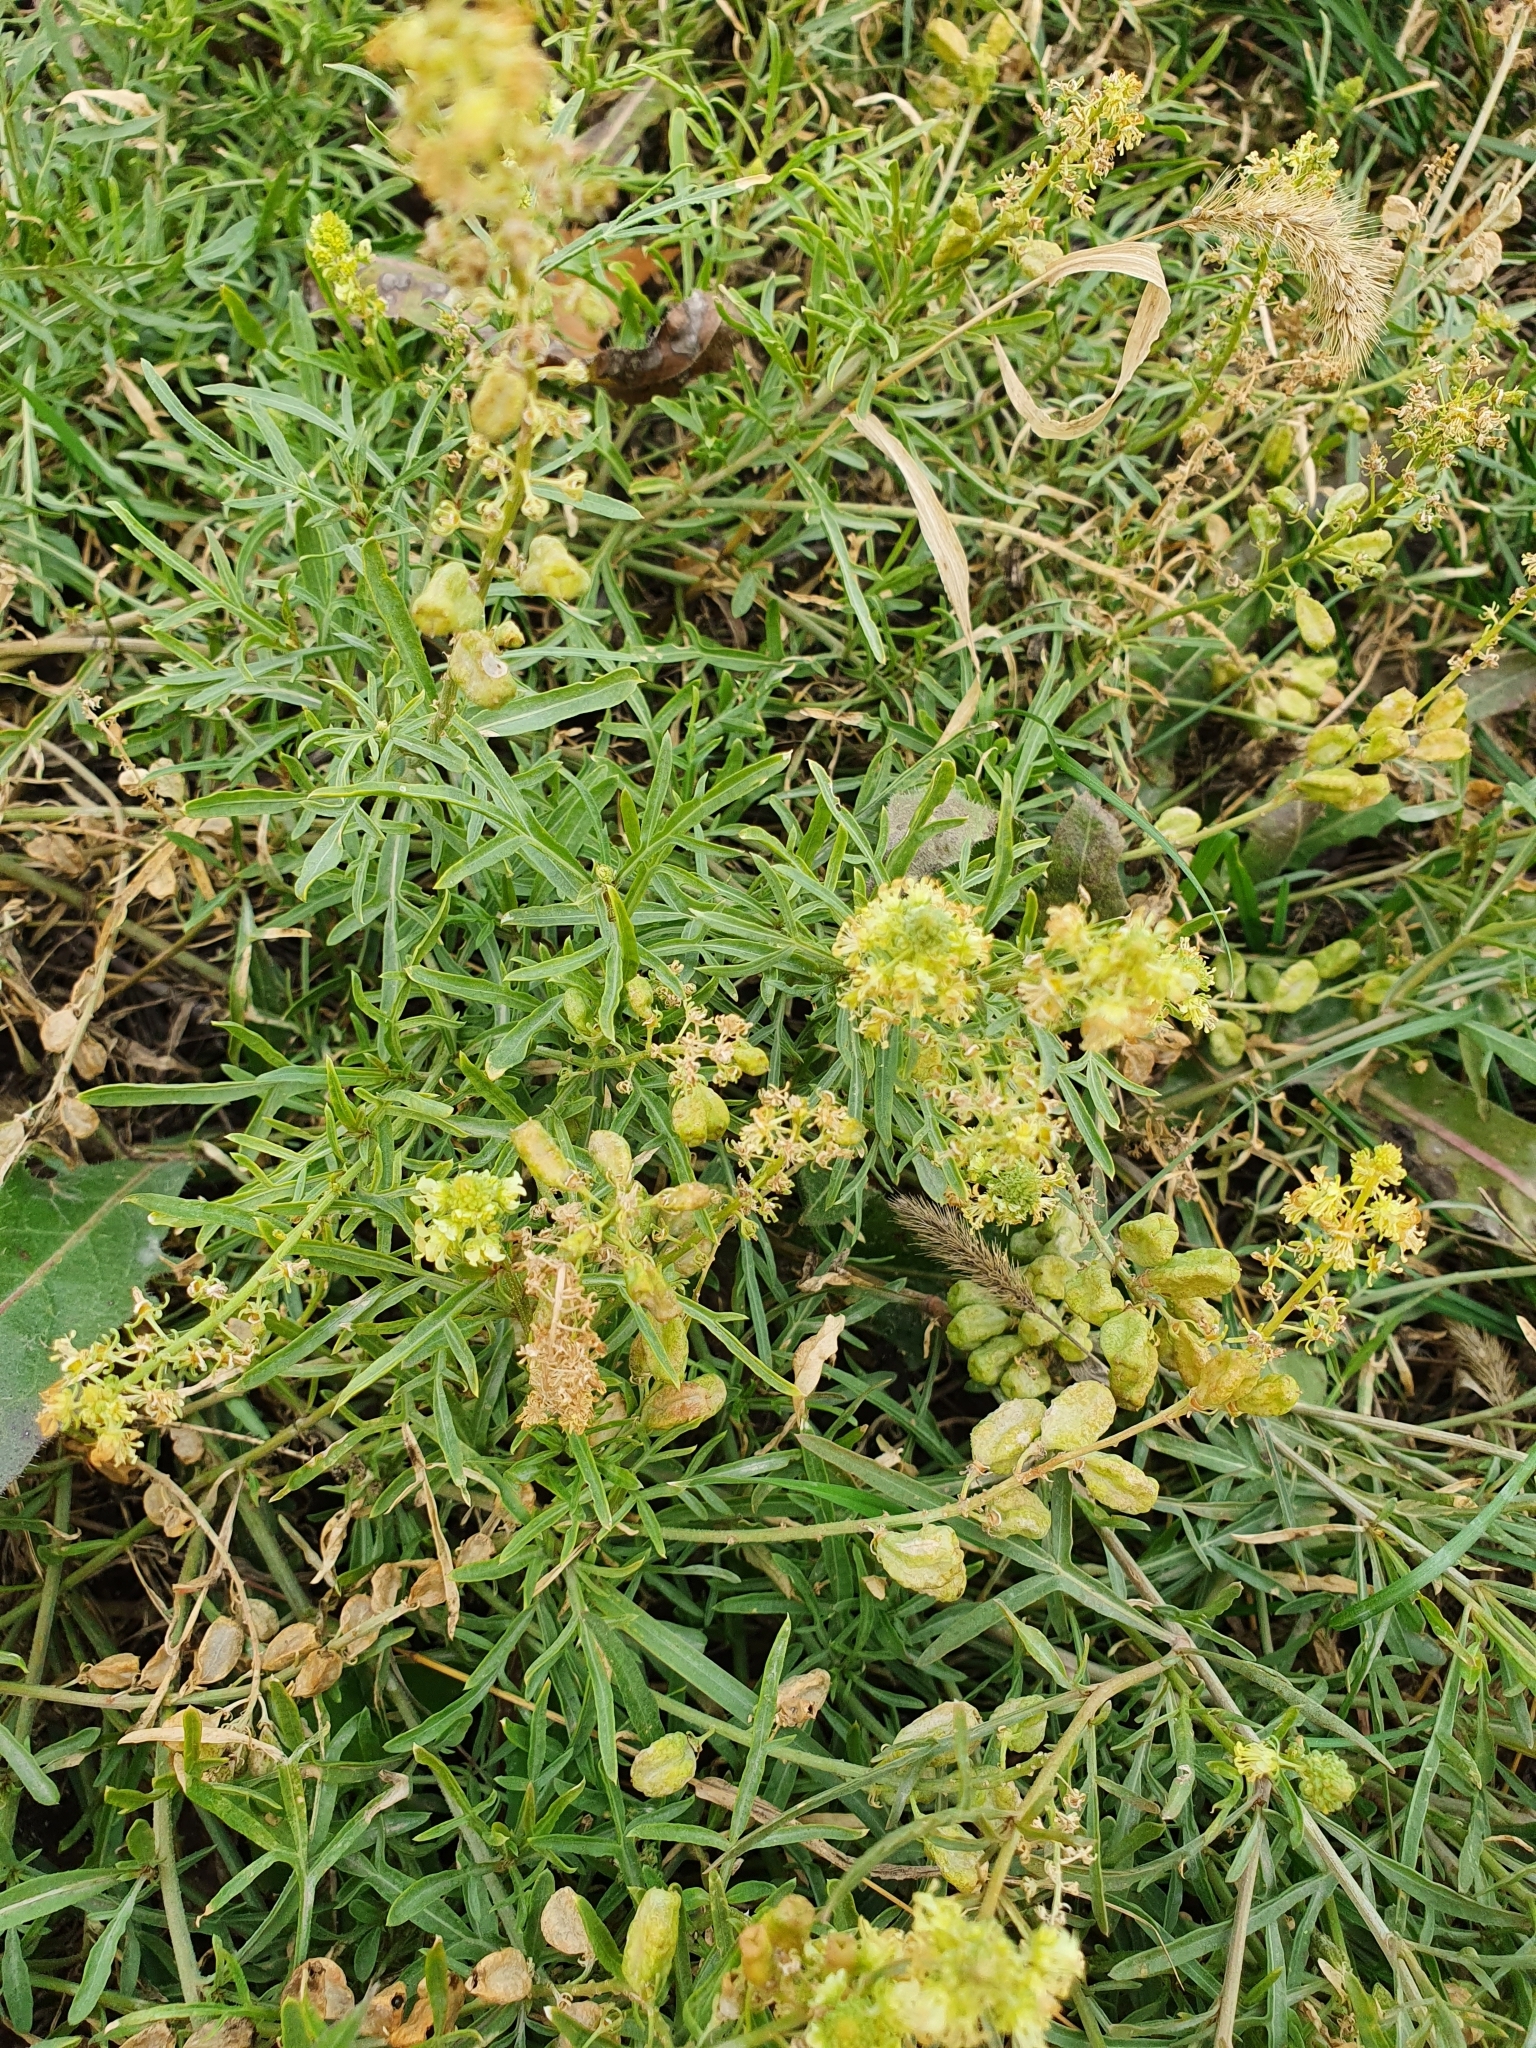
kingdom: Plantae
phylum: Tracheophyta
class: Magnoliopsida
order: Brassicales
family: Resedaceae
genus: Reseda
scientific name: Reseda lutea
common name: Wild mignonette
